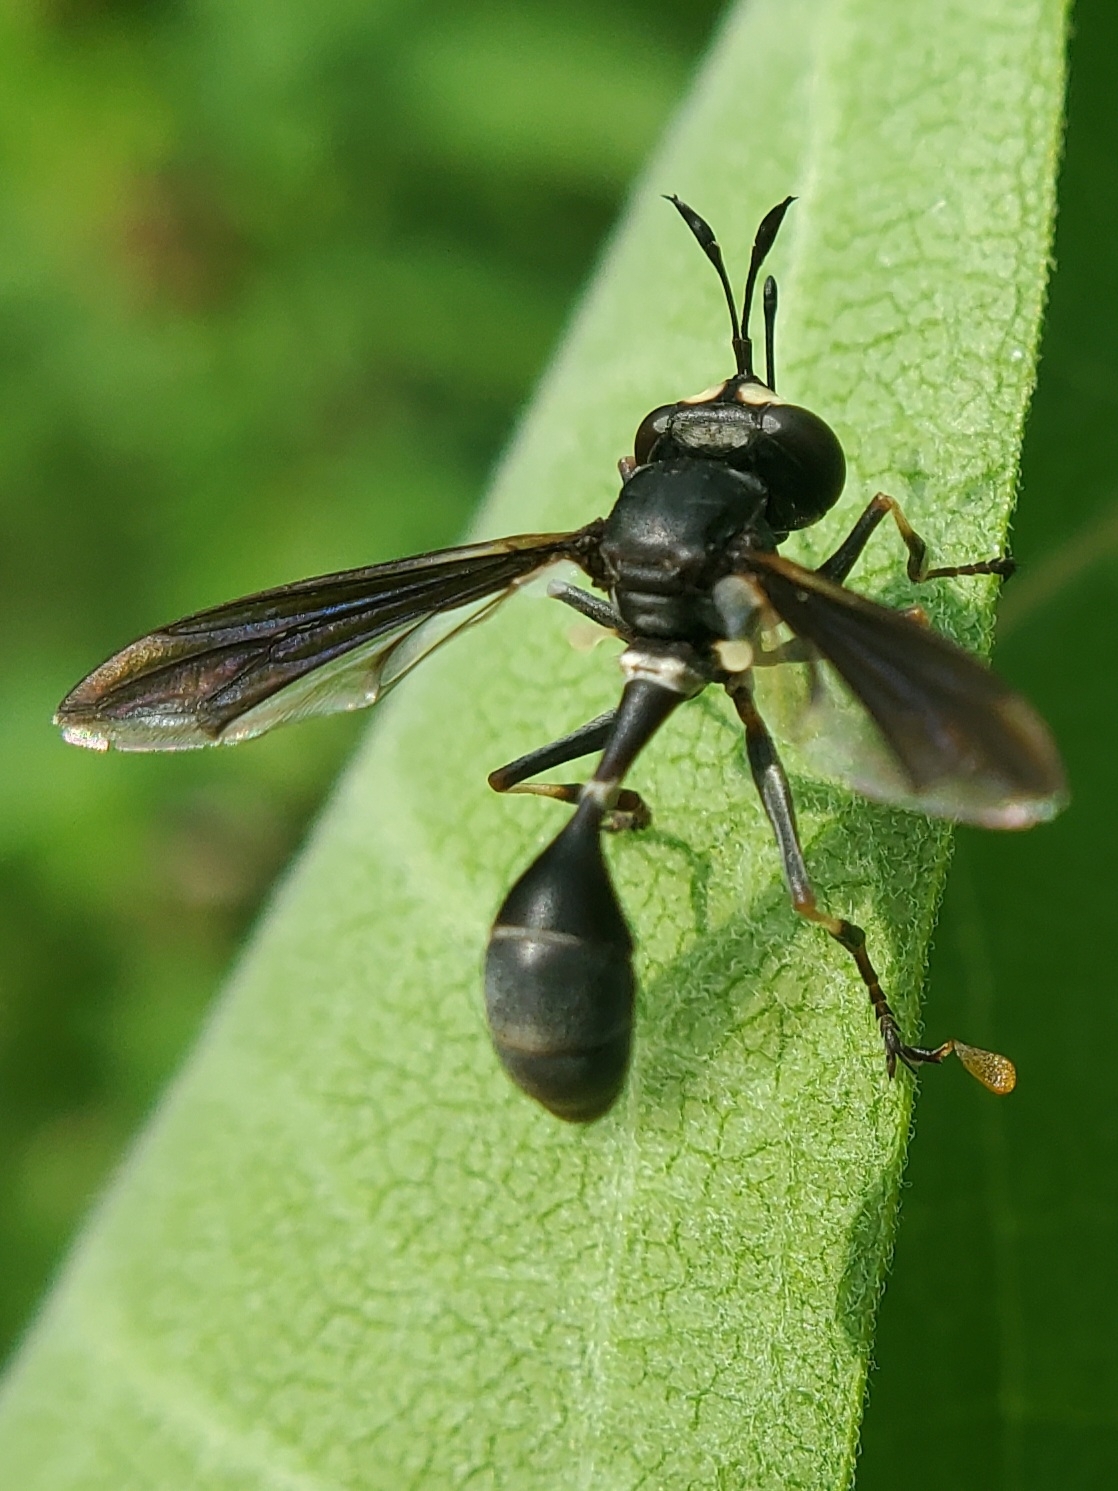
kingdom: Animalia
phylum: Arthropoda
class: Insecta
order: Diptera
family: Conopidae
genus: Physocephala
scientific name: Physocephala tibialis
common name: Common eastern physocephala
